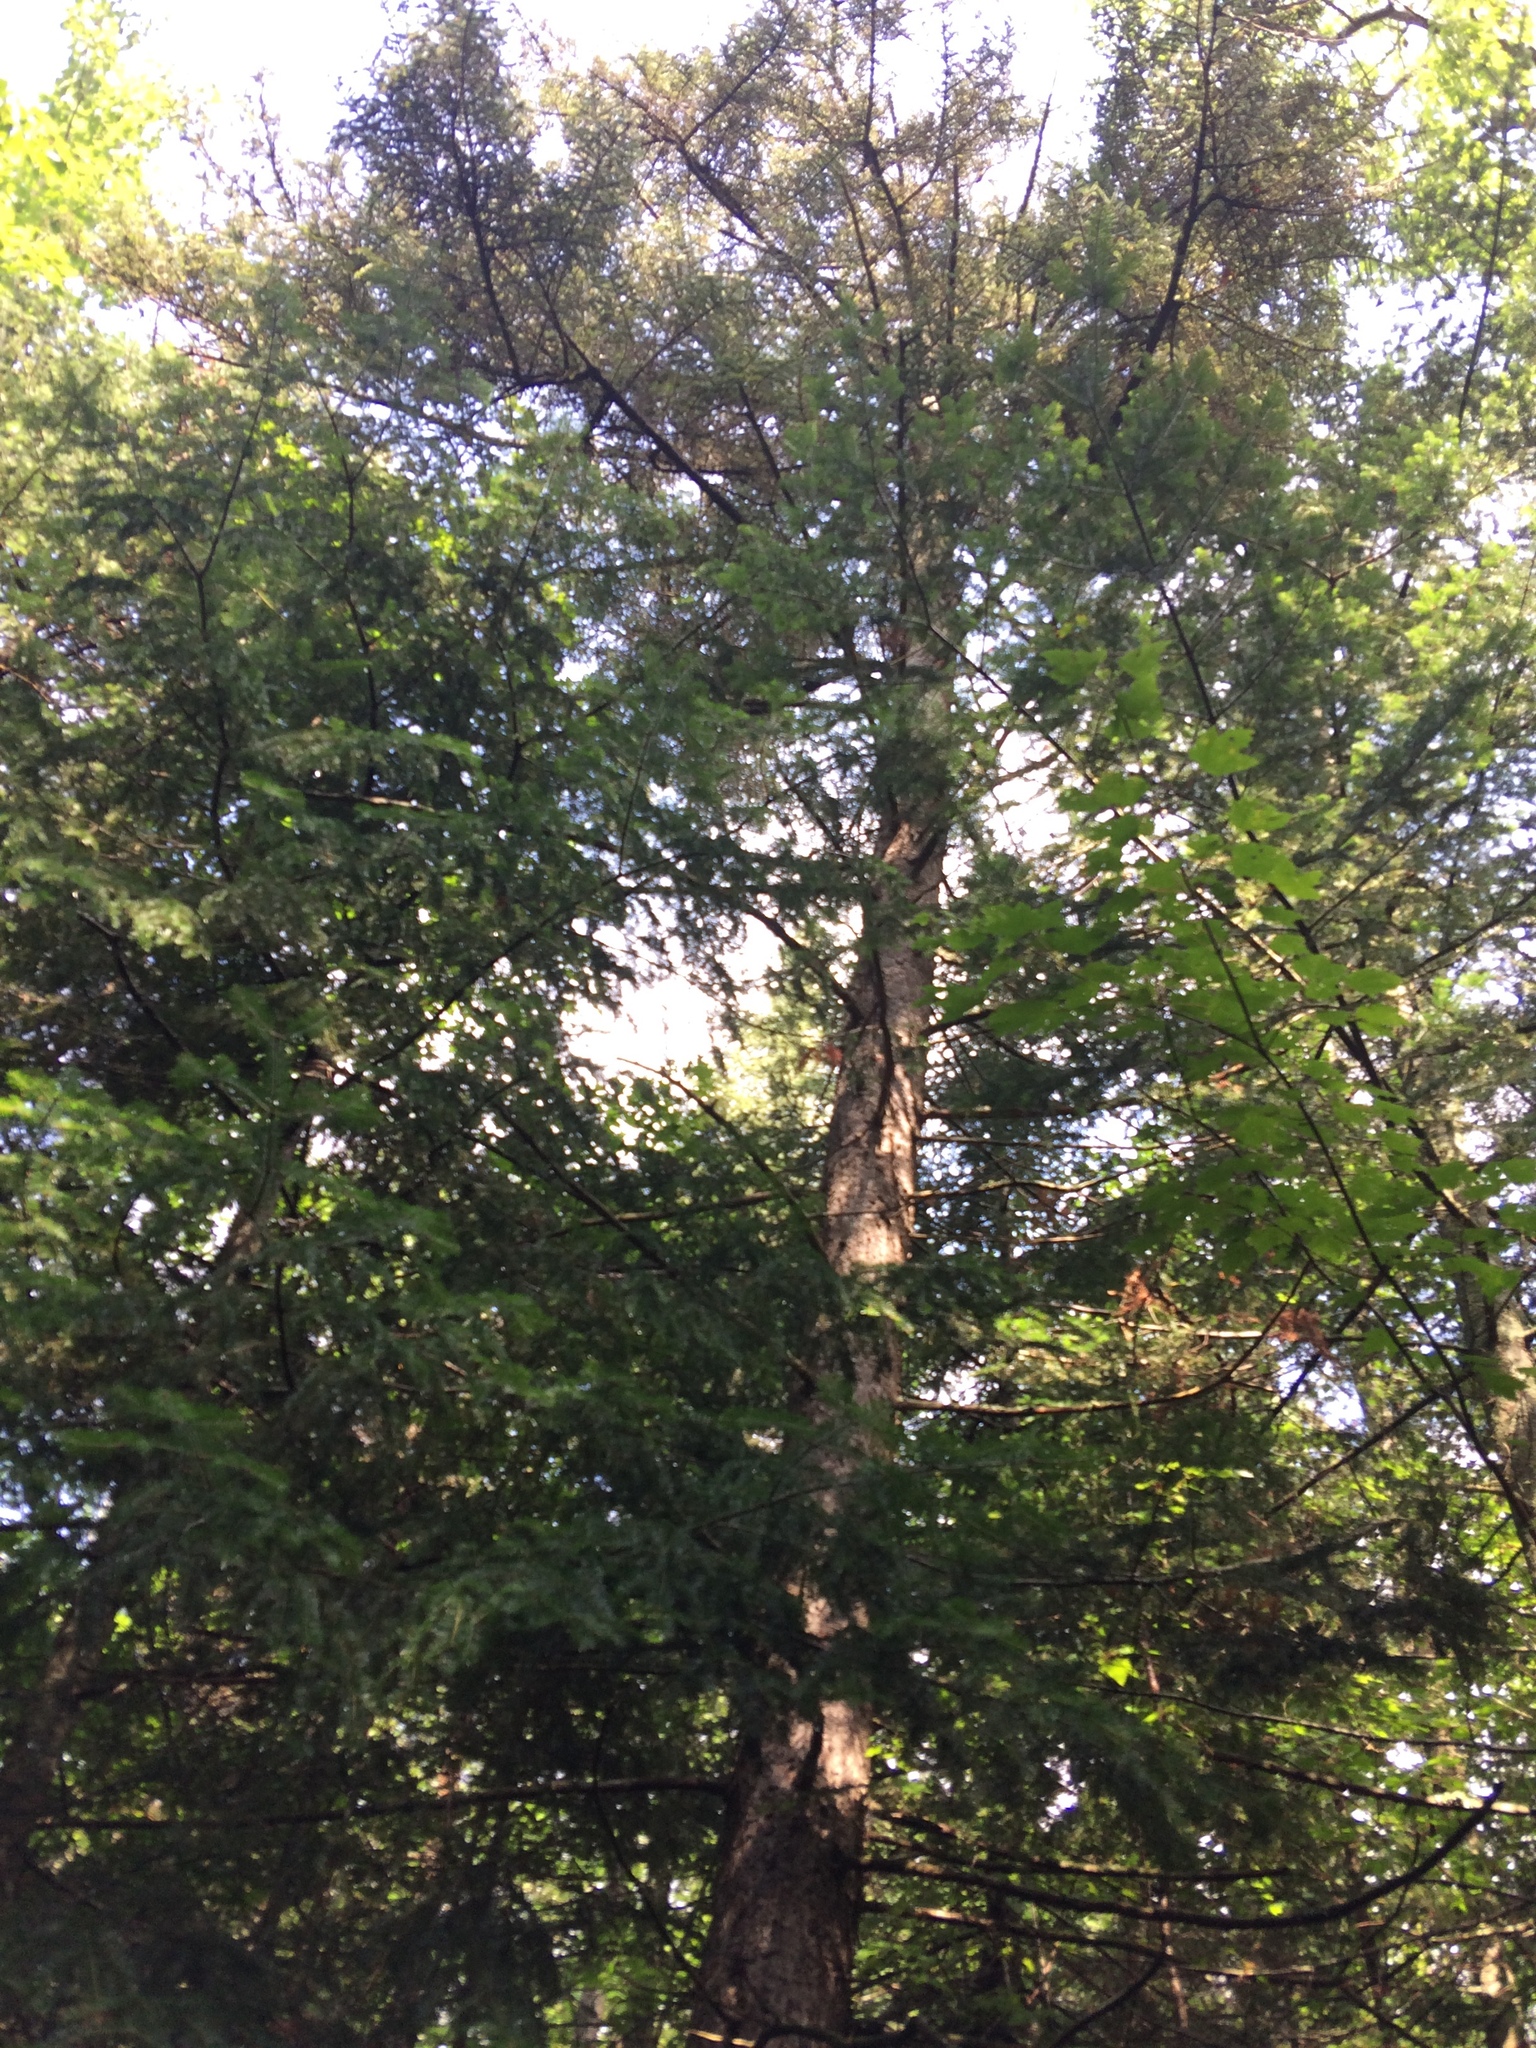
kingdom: Plantae
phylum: Tracheophyta
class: Pinopsida
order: Pinales
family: Pinaceae
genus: Picea
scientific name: Picea glauca
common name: White spruce
